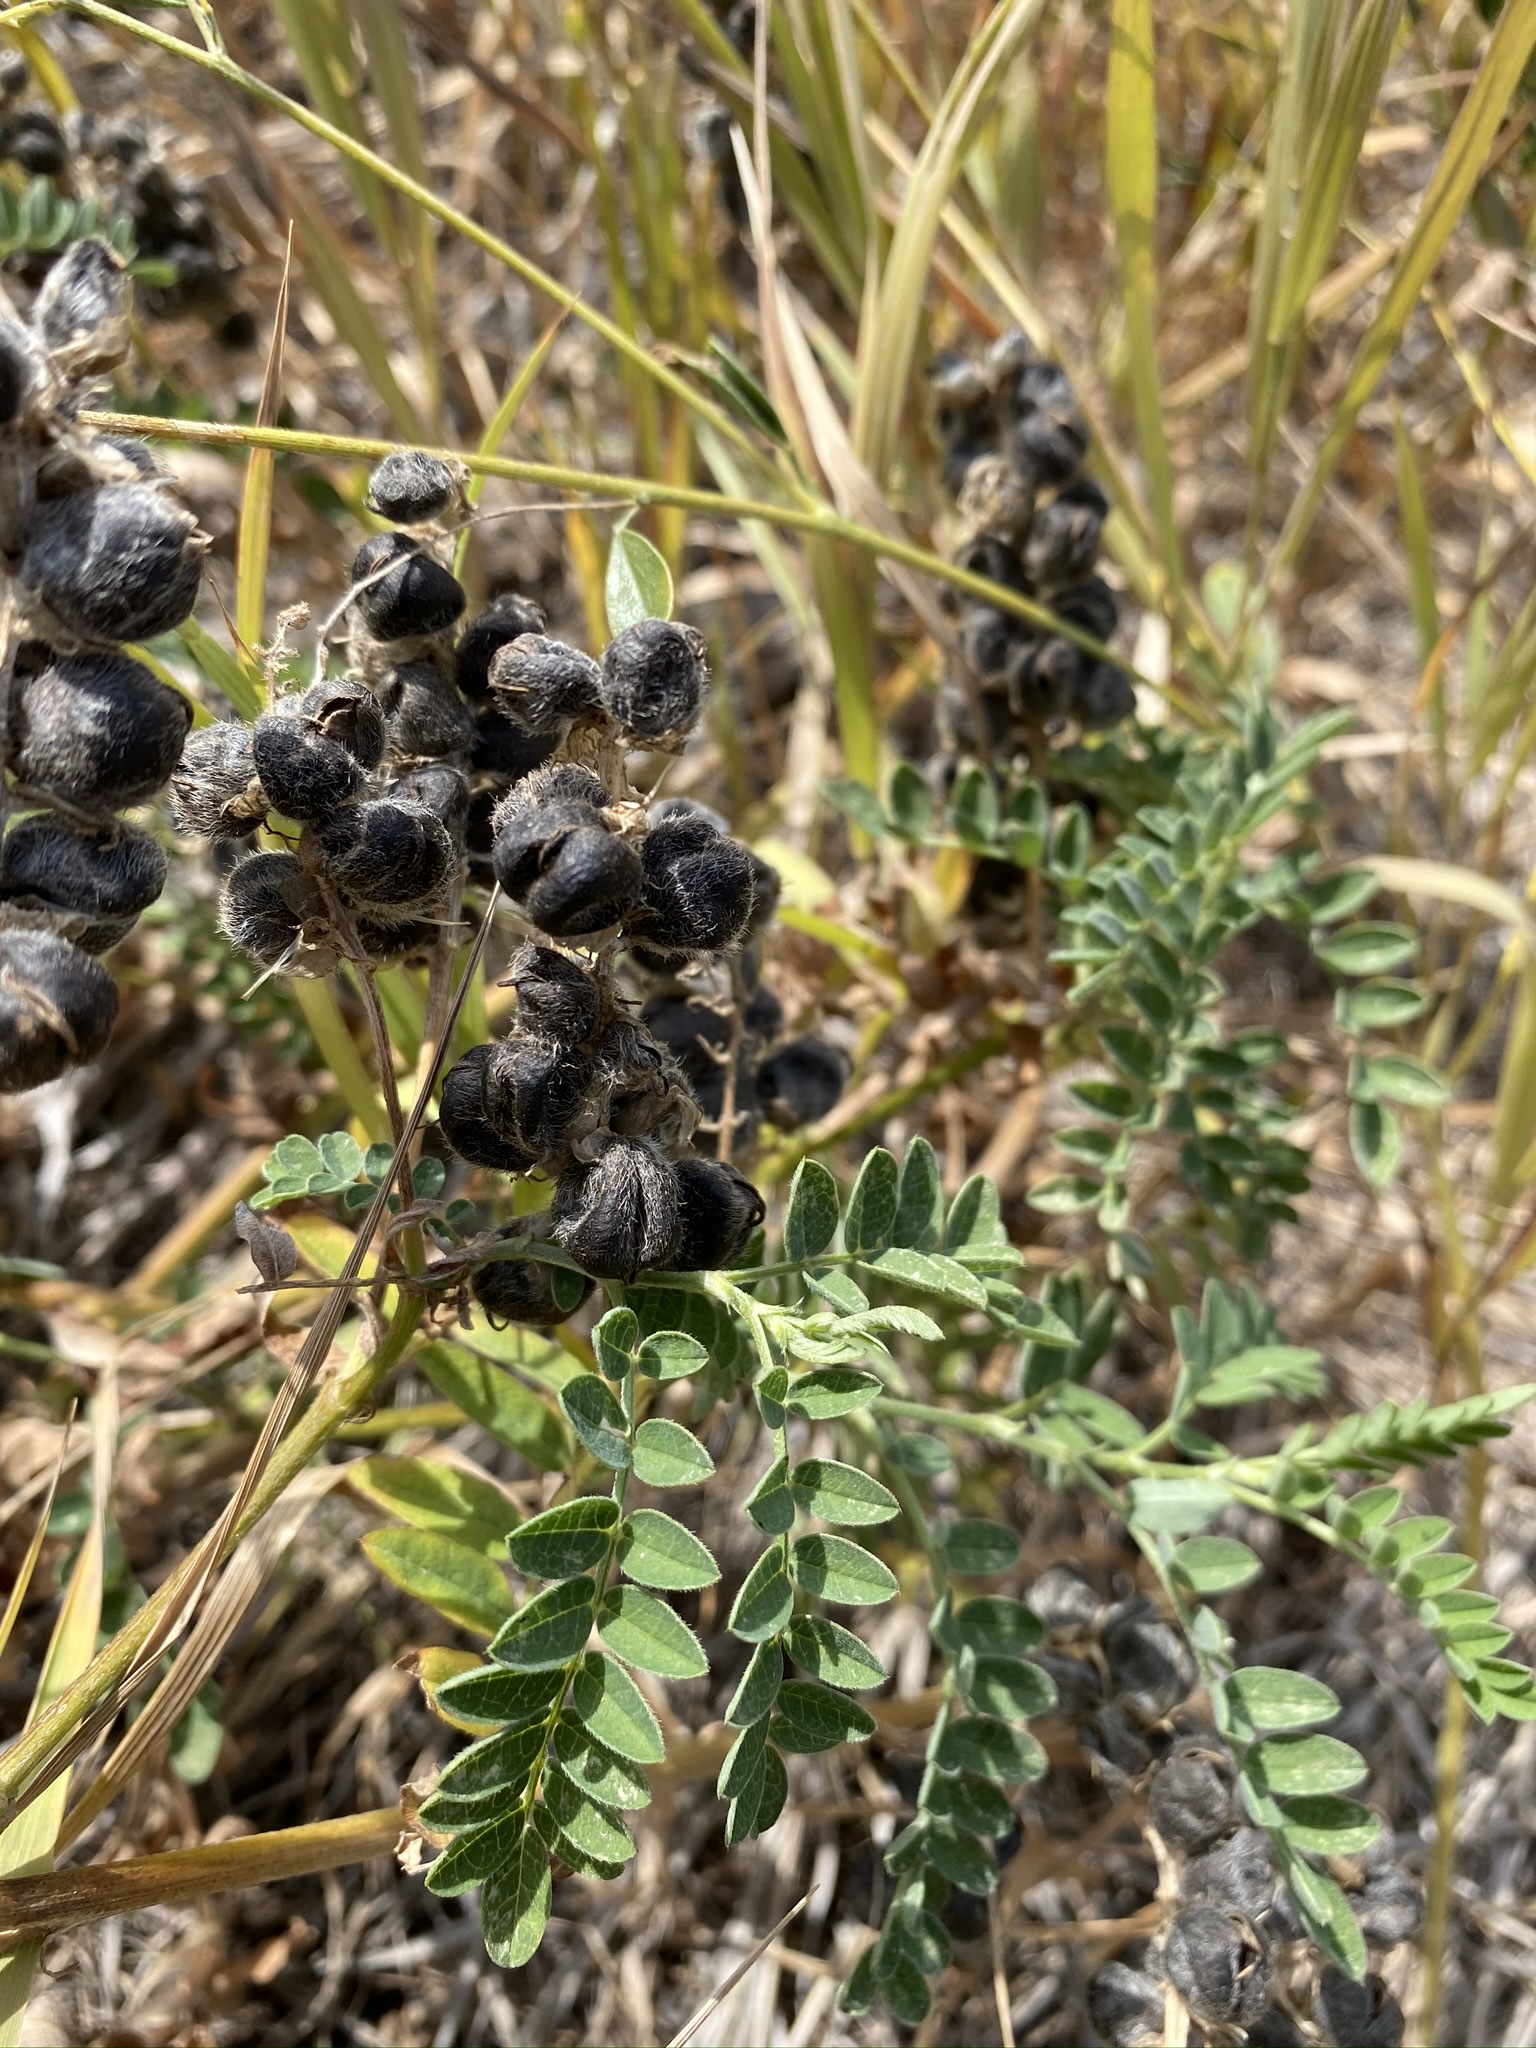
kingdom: Plantae
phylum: Tracheophyta
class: Magnoliopsida
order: Fabales
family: Fabaceae
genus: Astragalus
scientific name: Astragalus cicer
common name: Chick-pea milk-vetch
